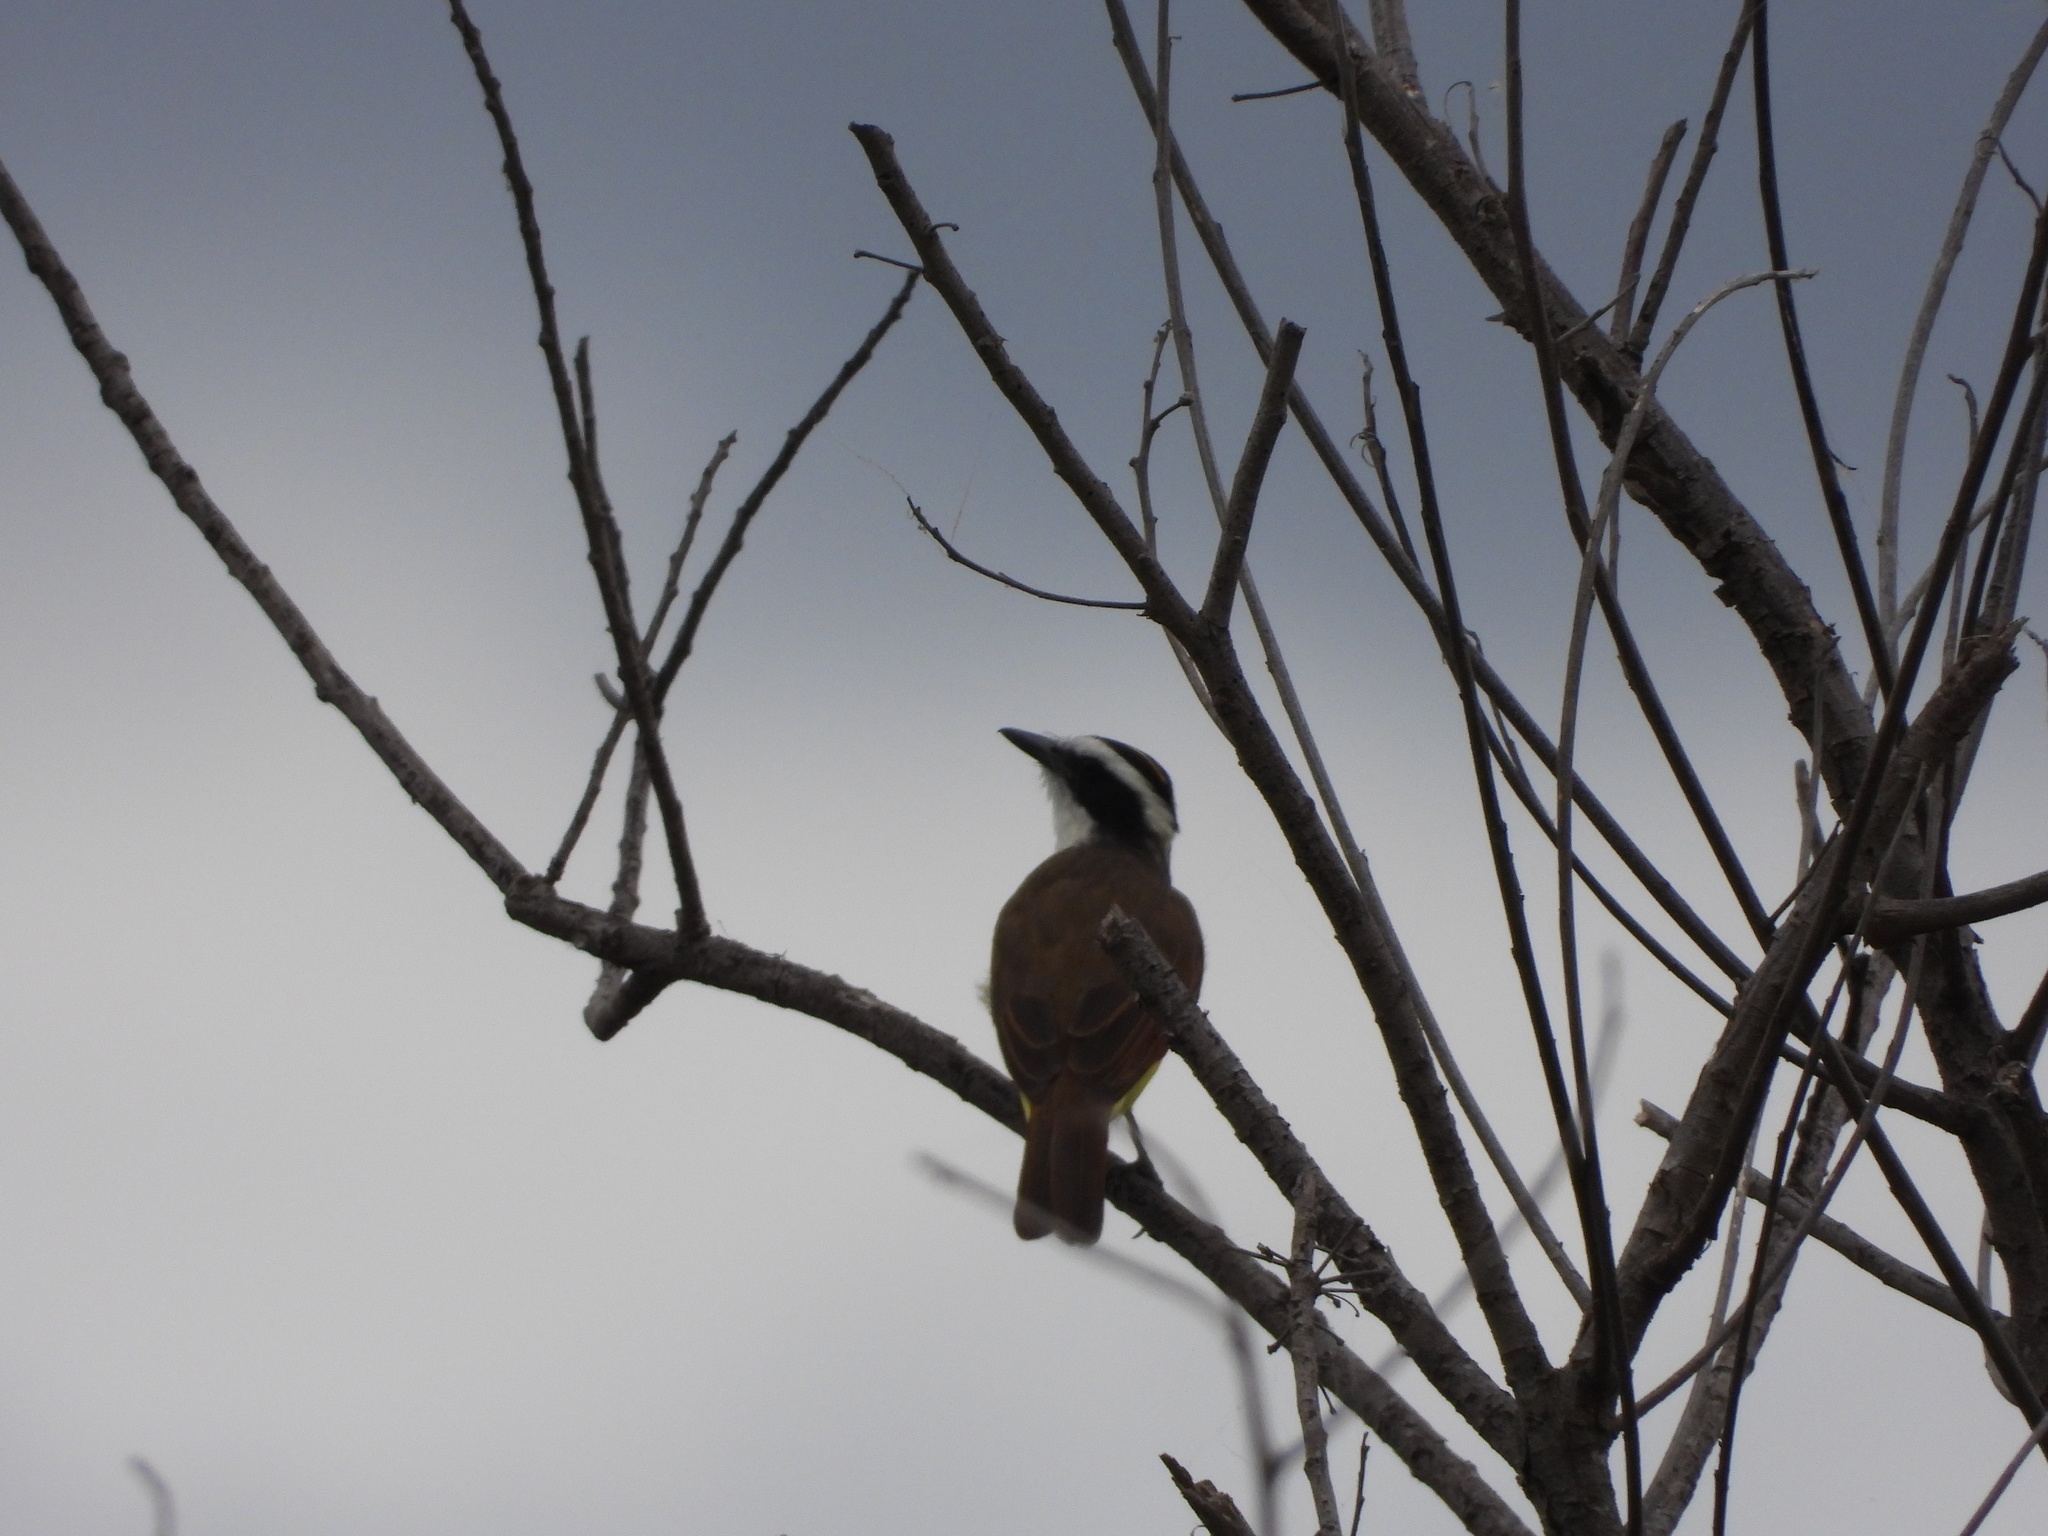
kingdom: Animalia
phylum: Chordata
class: Aves
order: Passeriformes
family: Tyrannidae
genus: Pitangus
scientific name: Pitangus sulphuratus
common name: Great kiskadee
